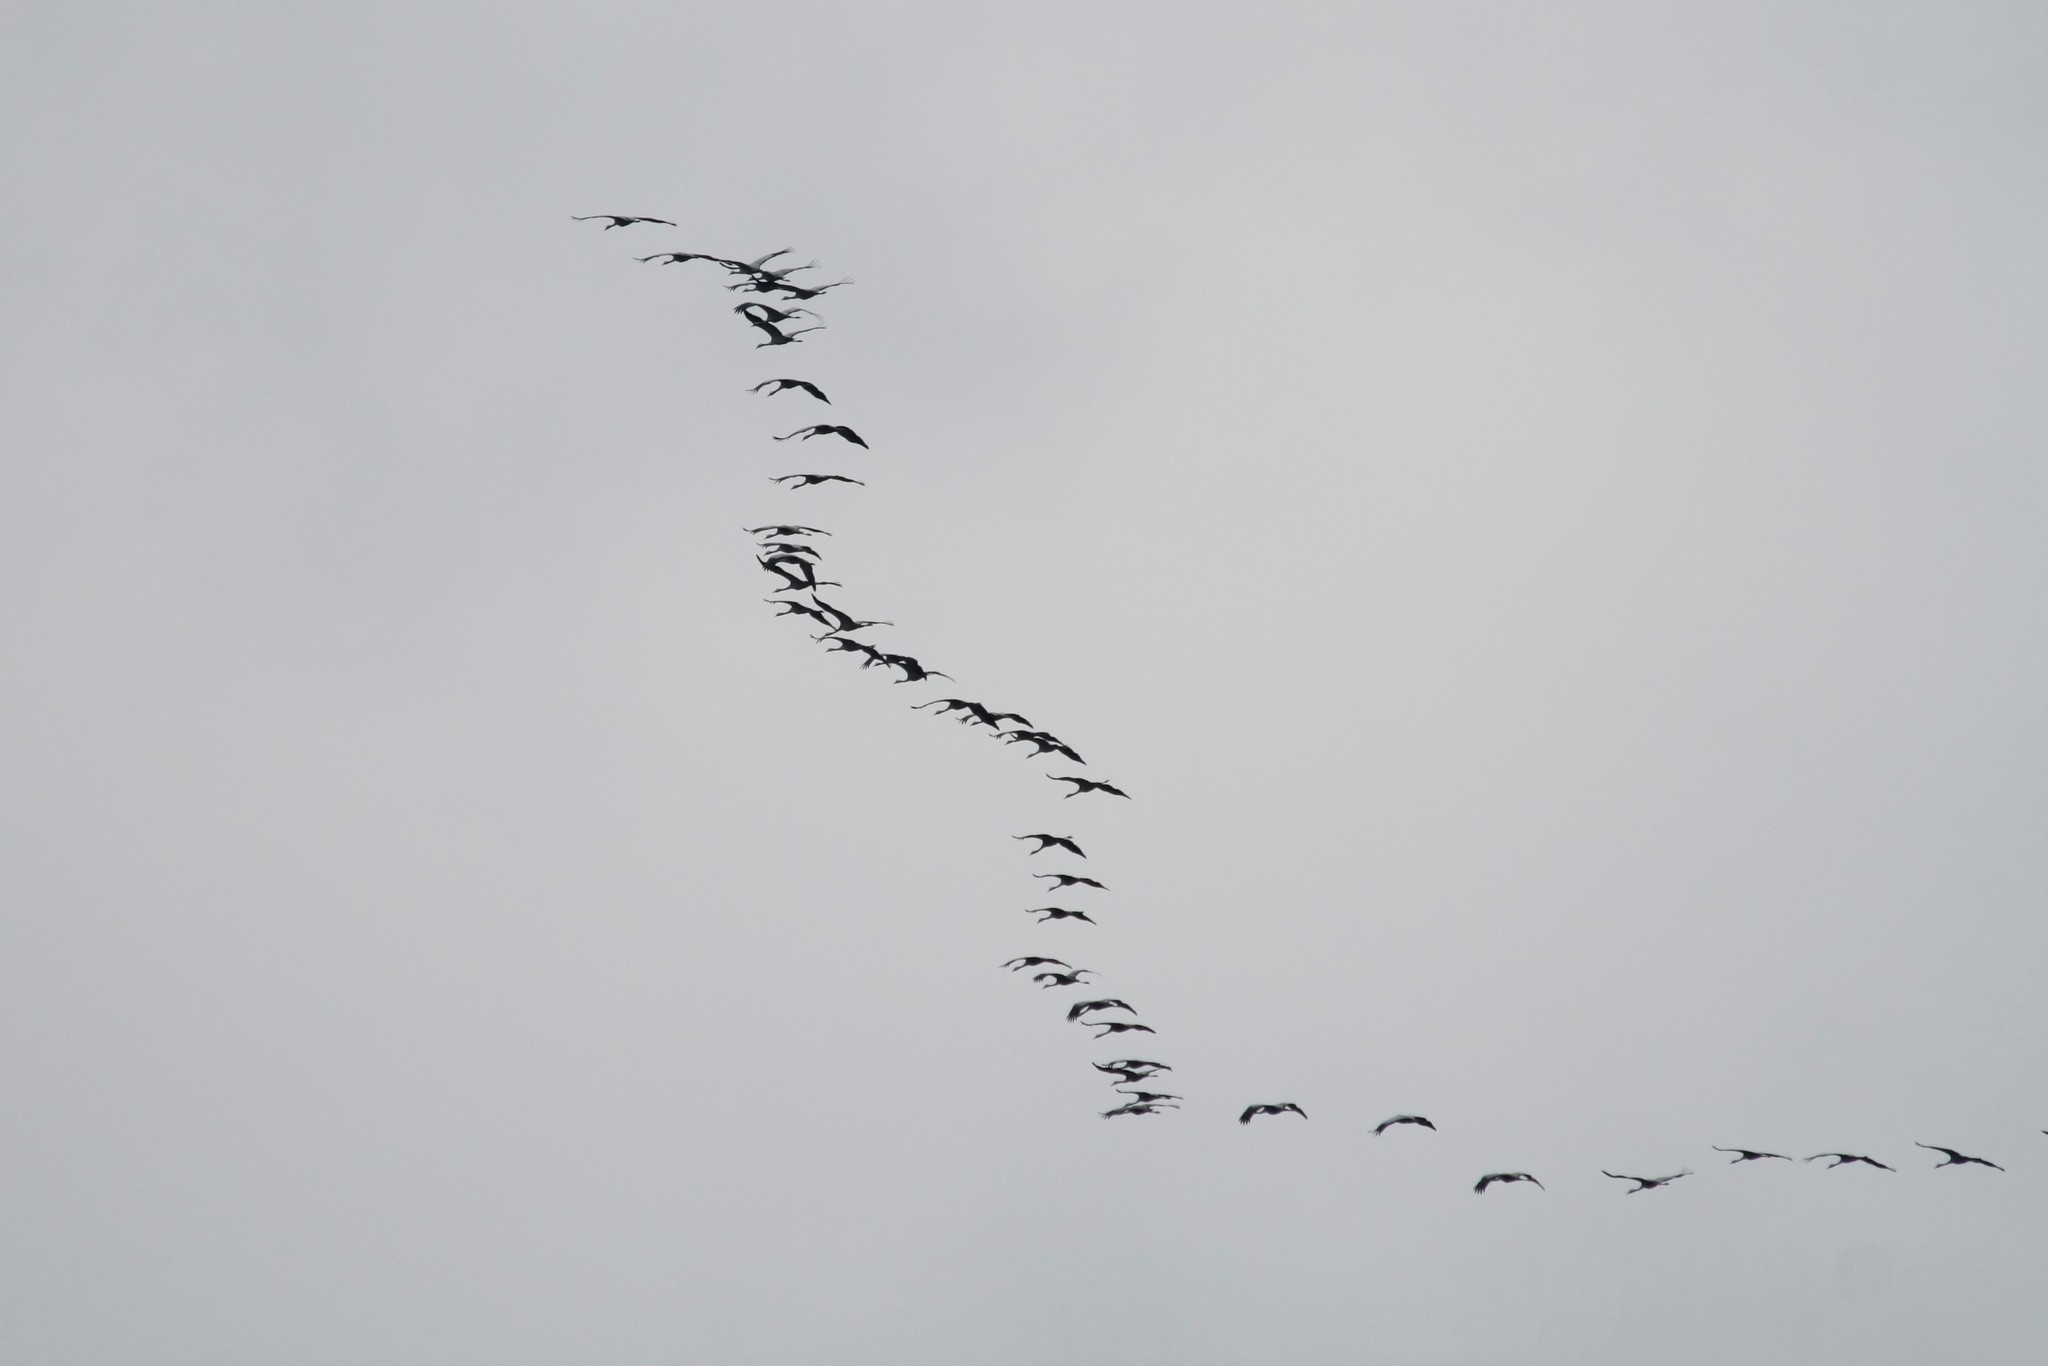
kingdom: Animalia
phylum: Chordata
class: Aves
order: Gruiformes
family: Gruidae
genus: Grus
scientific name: Grus grus
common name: Common crane
